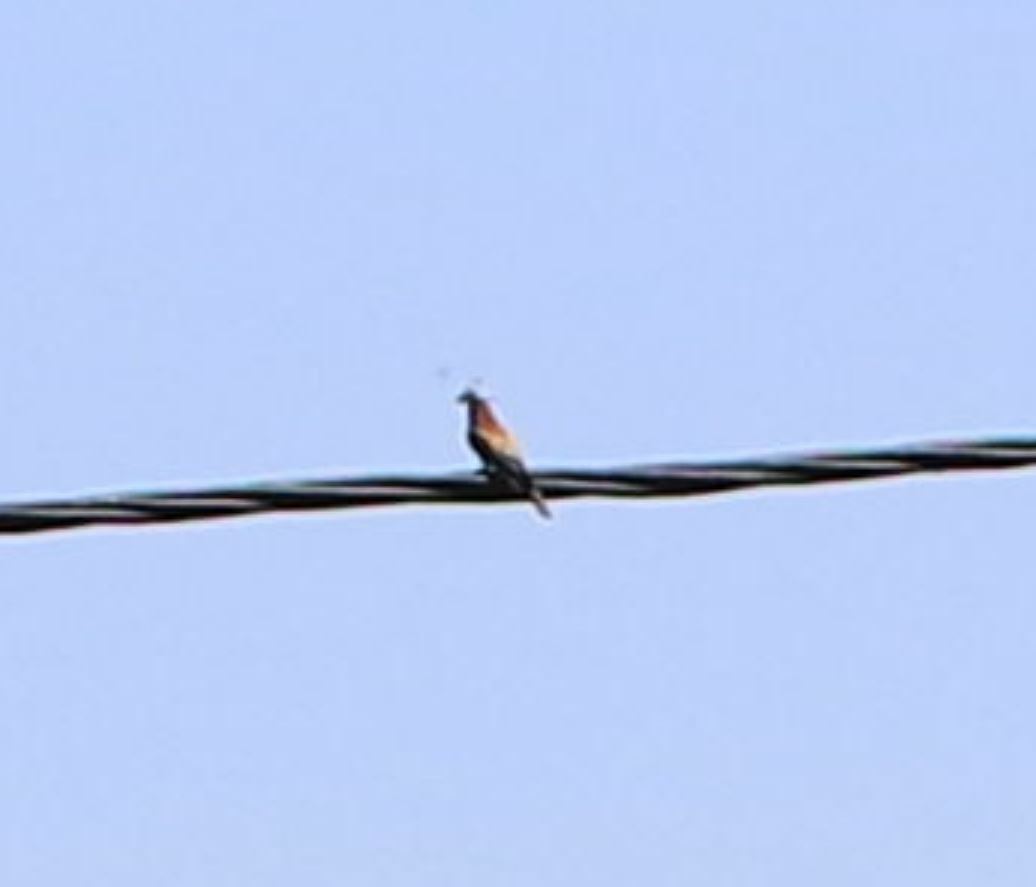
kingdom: Animalia
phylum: Chordata
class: Aves
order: Coraciiformes
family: Meropidae
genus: Merops
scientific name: Merops apiaster
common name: European bee-eater
